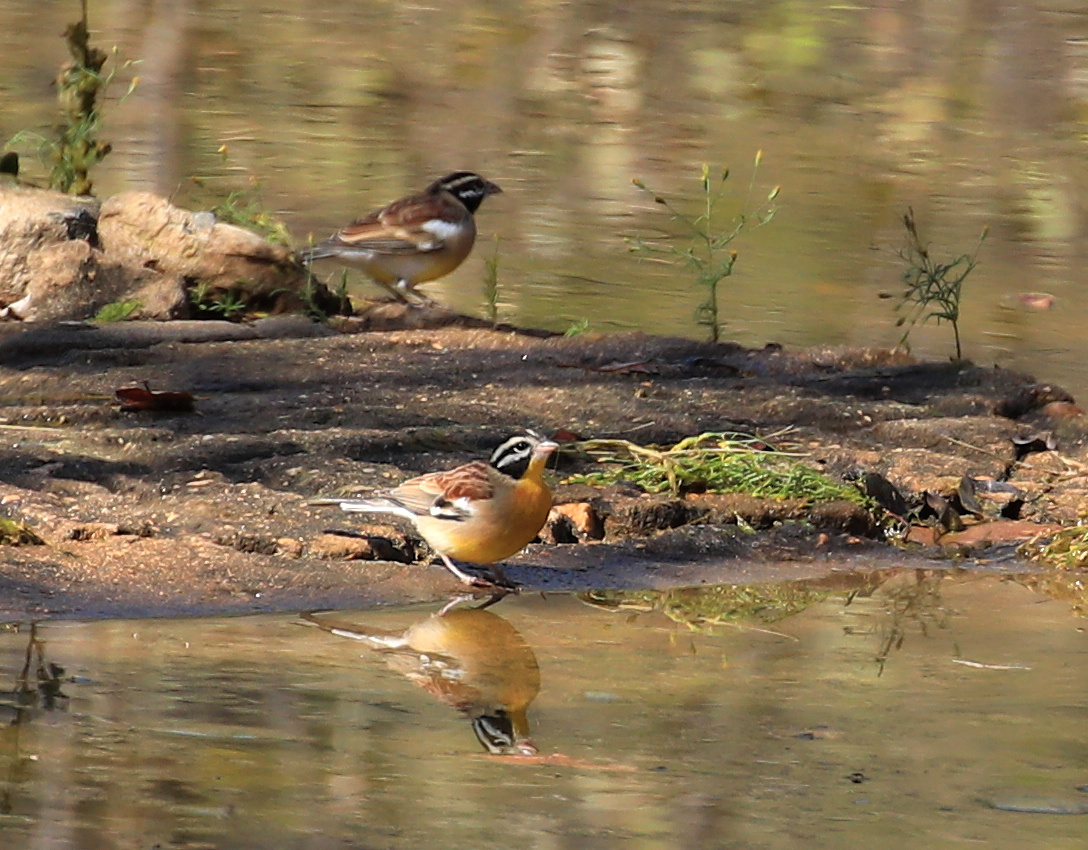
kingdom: Animalia
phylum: Chordata
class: Aves
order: Passeriformes
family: Emberizidae
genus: Emberiza
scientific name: Emberiza flaviventris
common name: Golden-breasted bunting
